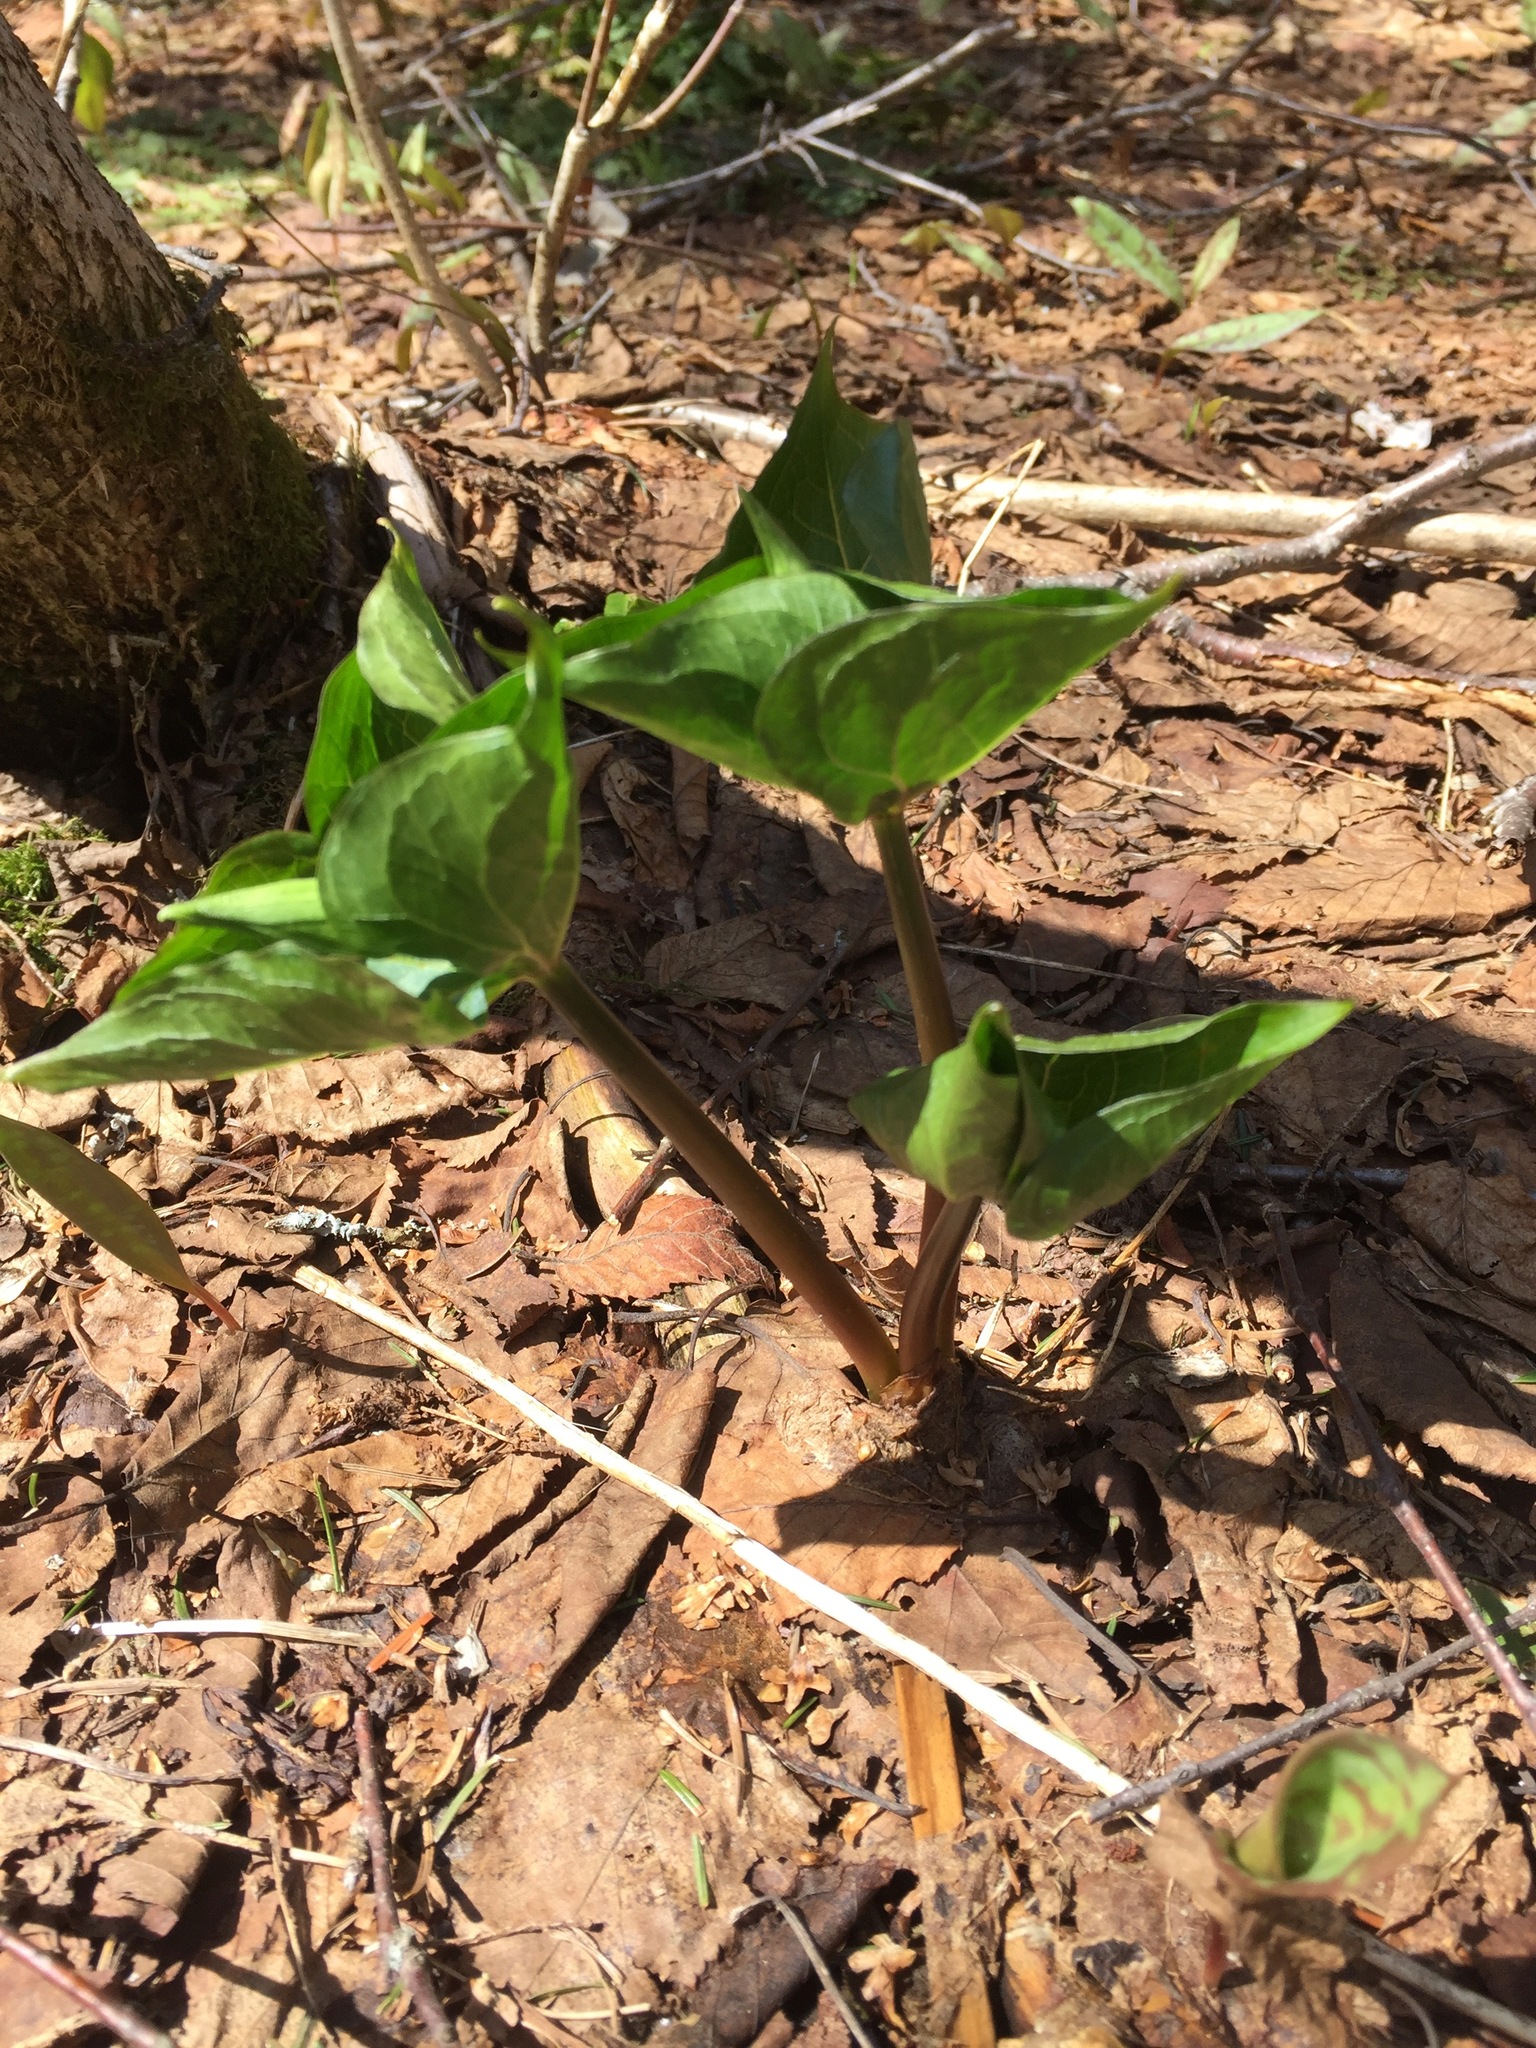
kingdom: Plantae
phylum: Tracheophyta
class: Liliopsida
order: Liliales
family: Melanthiaceae
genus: Trillium
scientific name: Trillium erectum
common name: Purple trillium
